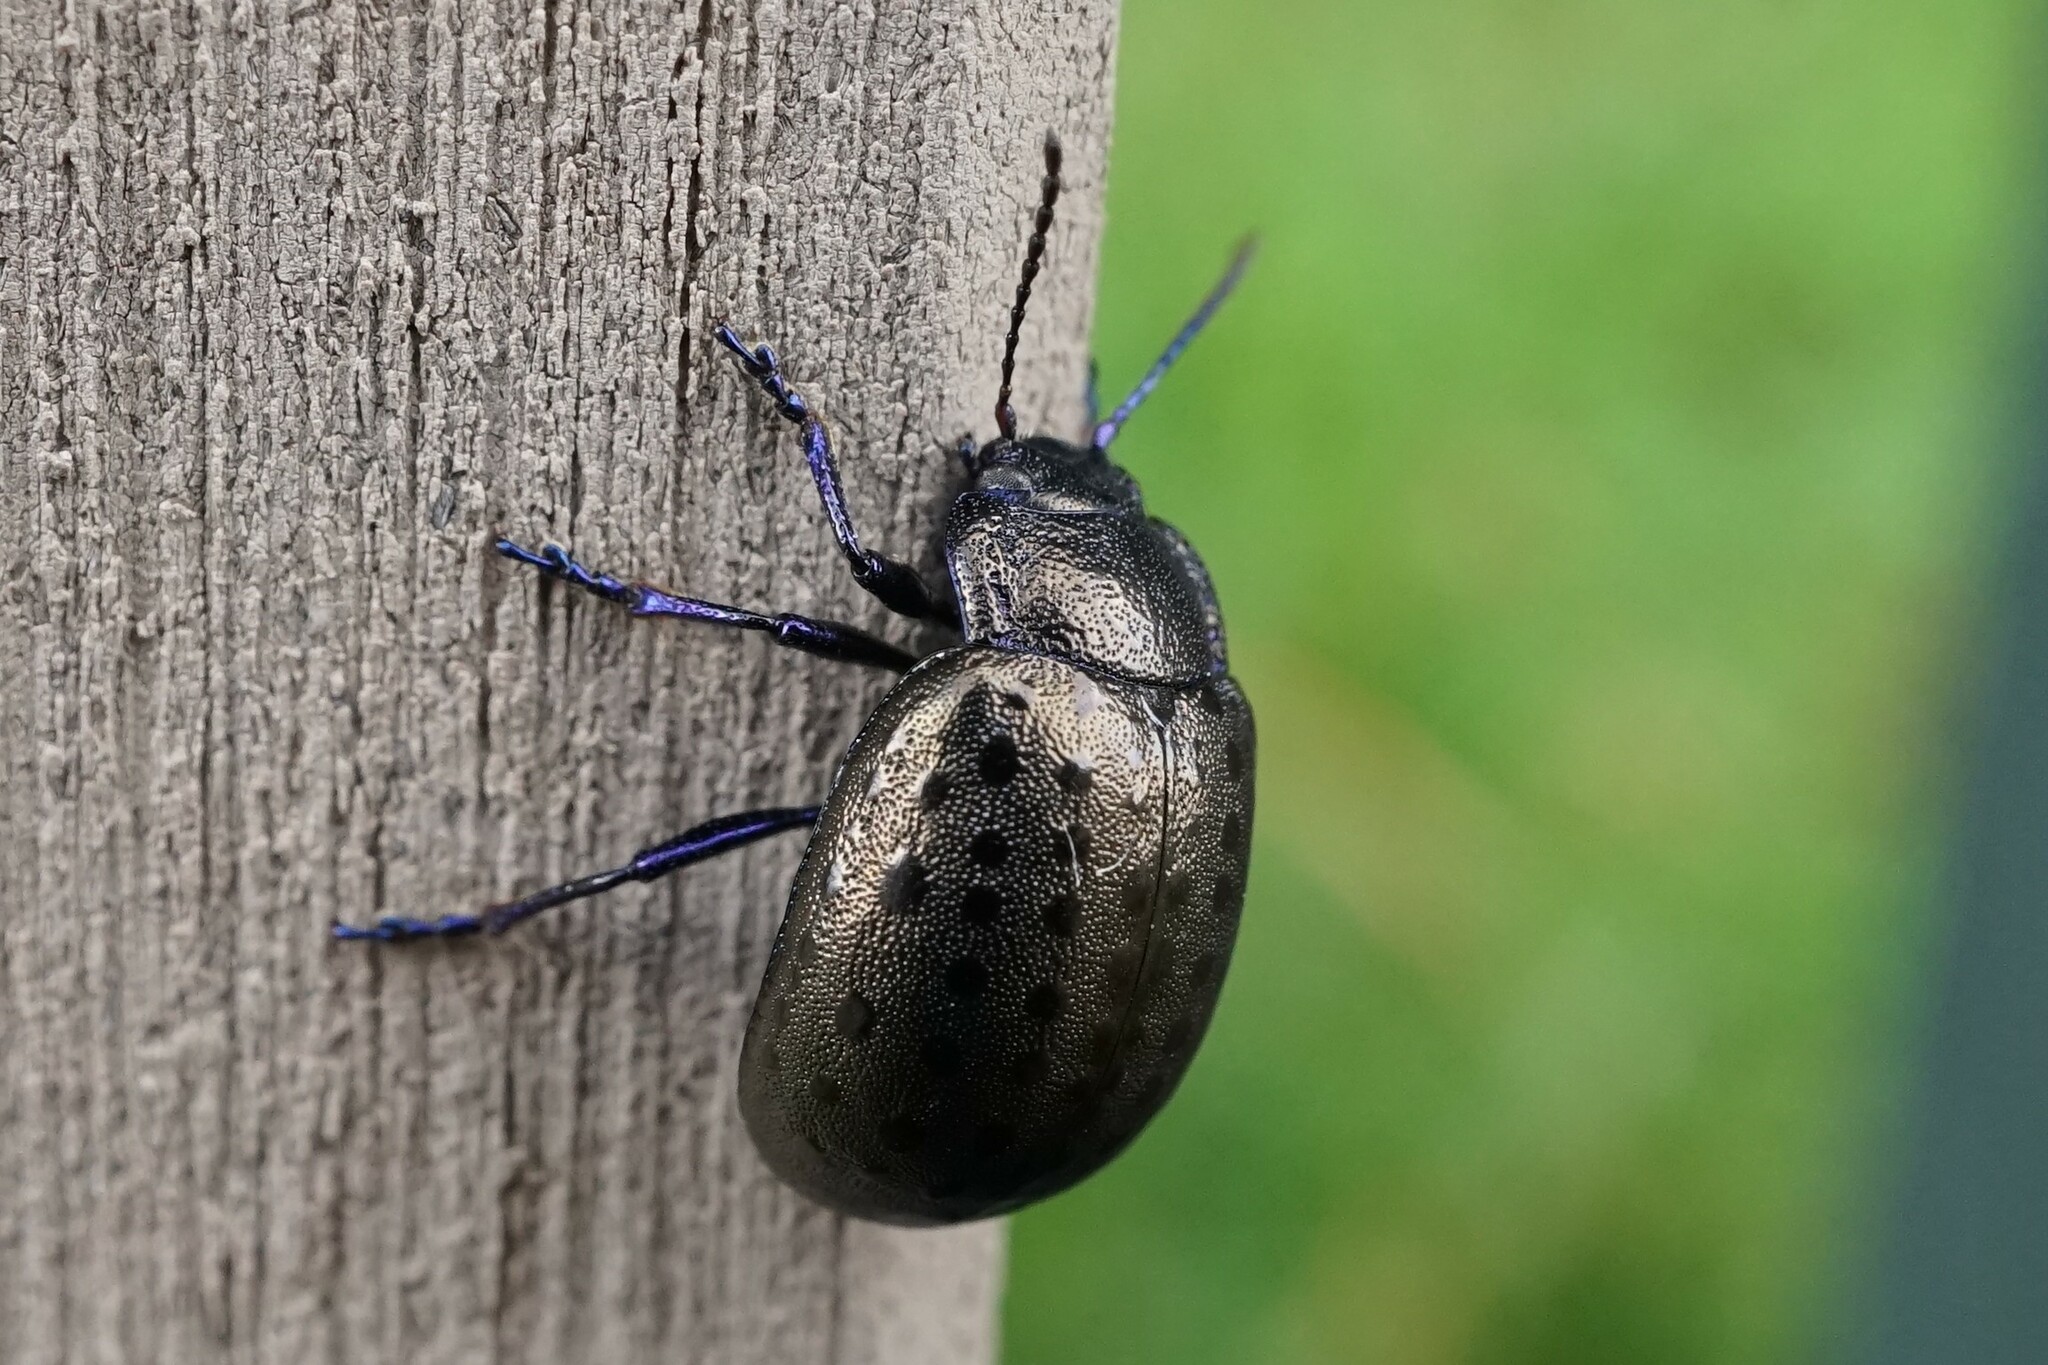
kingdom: Animalia
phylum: Arthropoda
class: Insecta
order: Coleoptera
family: Chrysomelidae
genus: Chrysolina
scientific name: Chrysolina
